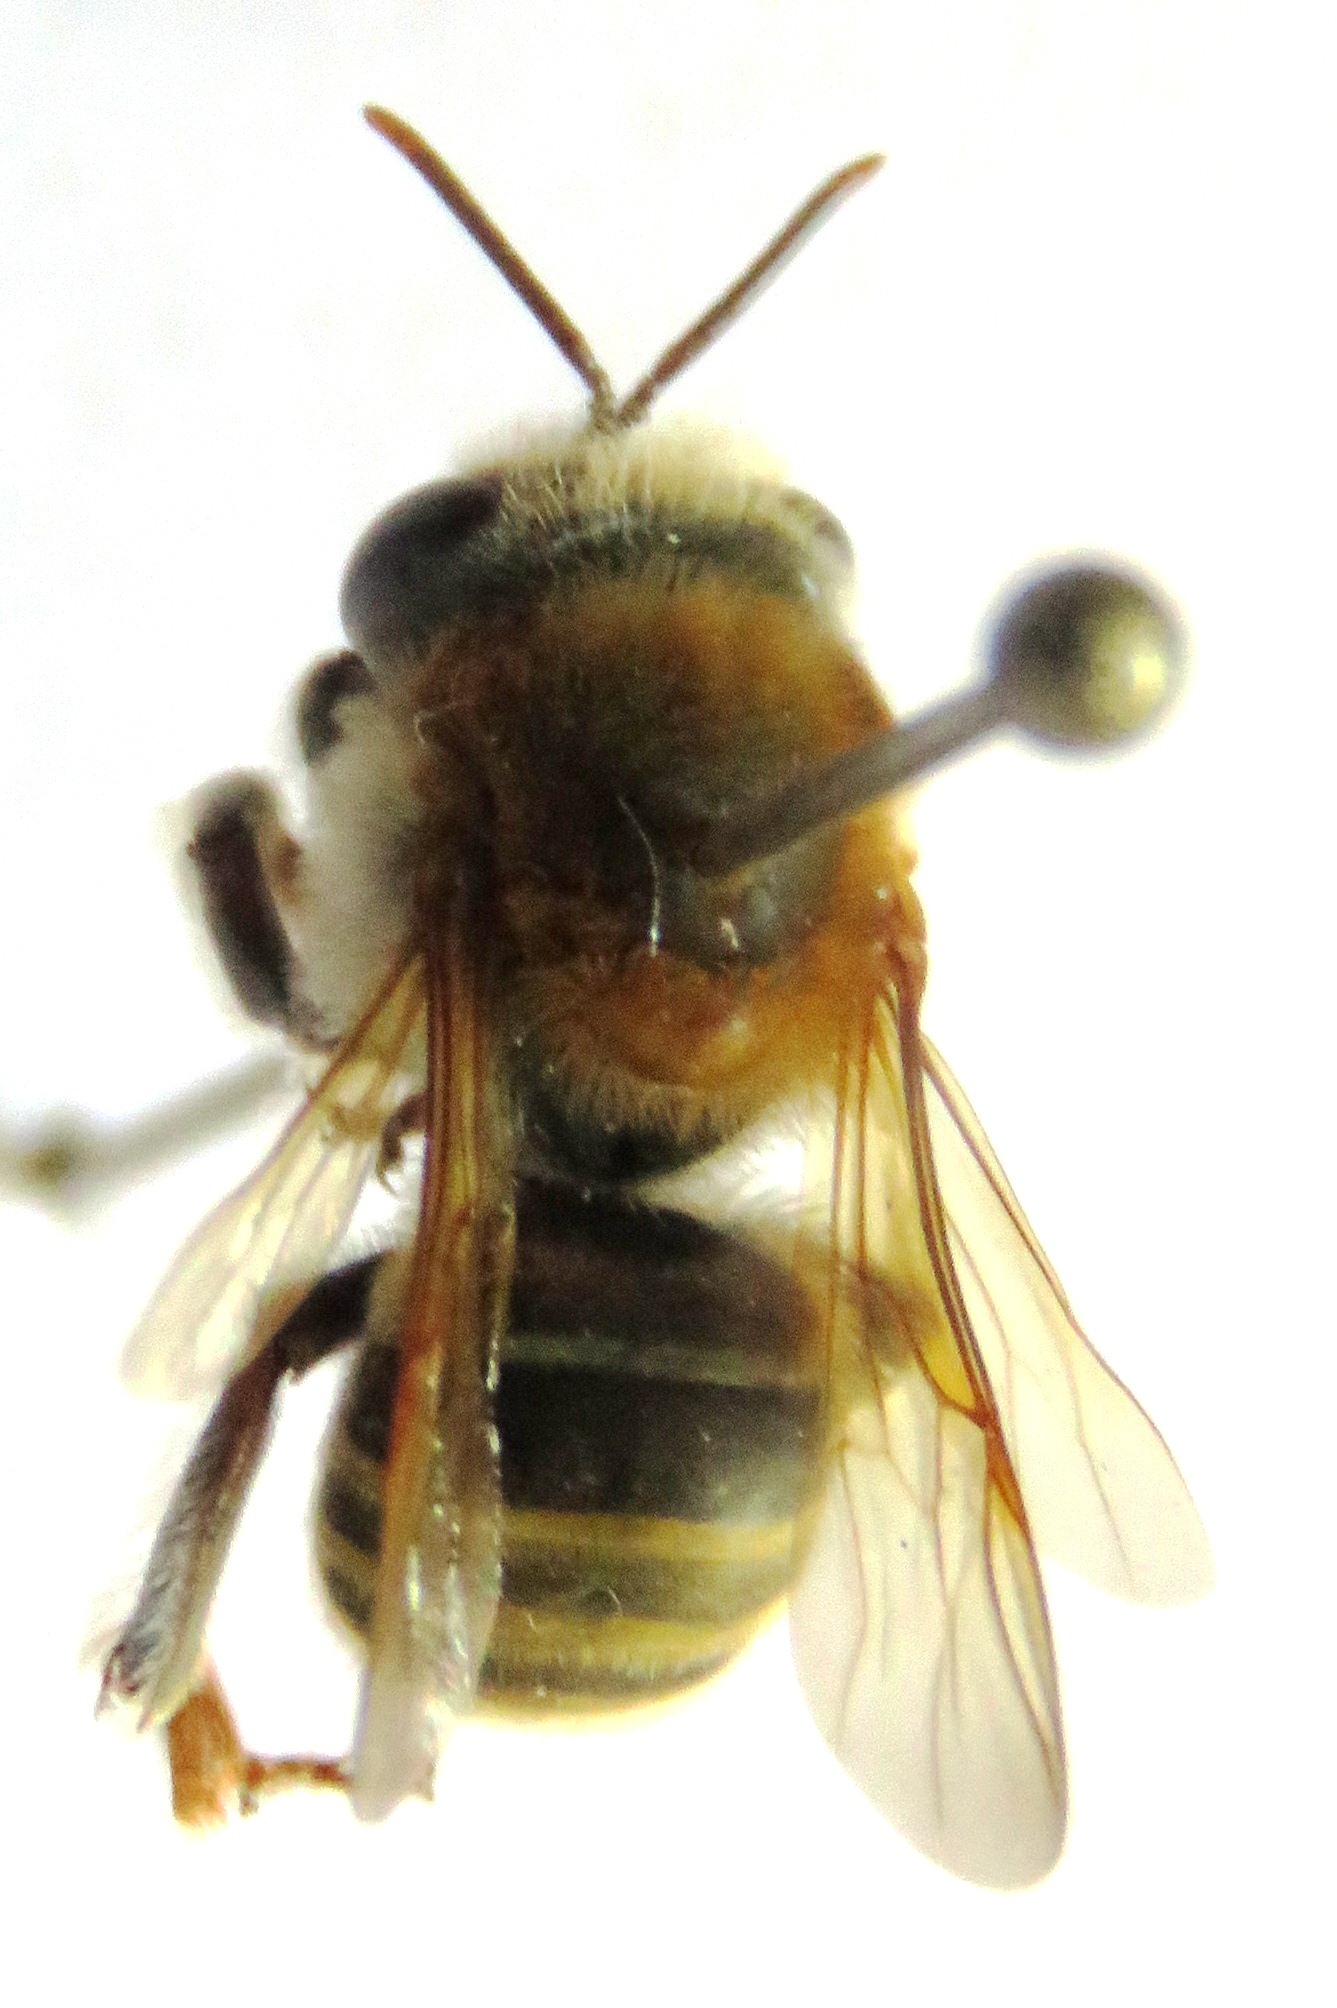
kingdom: Animalia
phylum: Arthropoda
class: Insecta
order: Hymenoptera
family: Apidae
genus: Melipona
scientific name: Melipona beecheii
